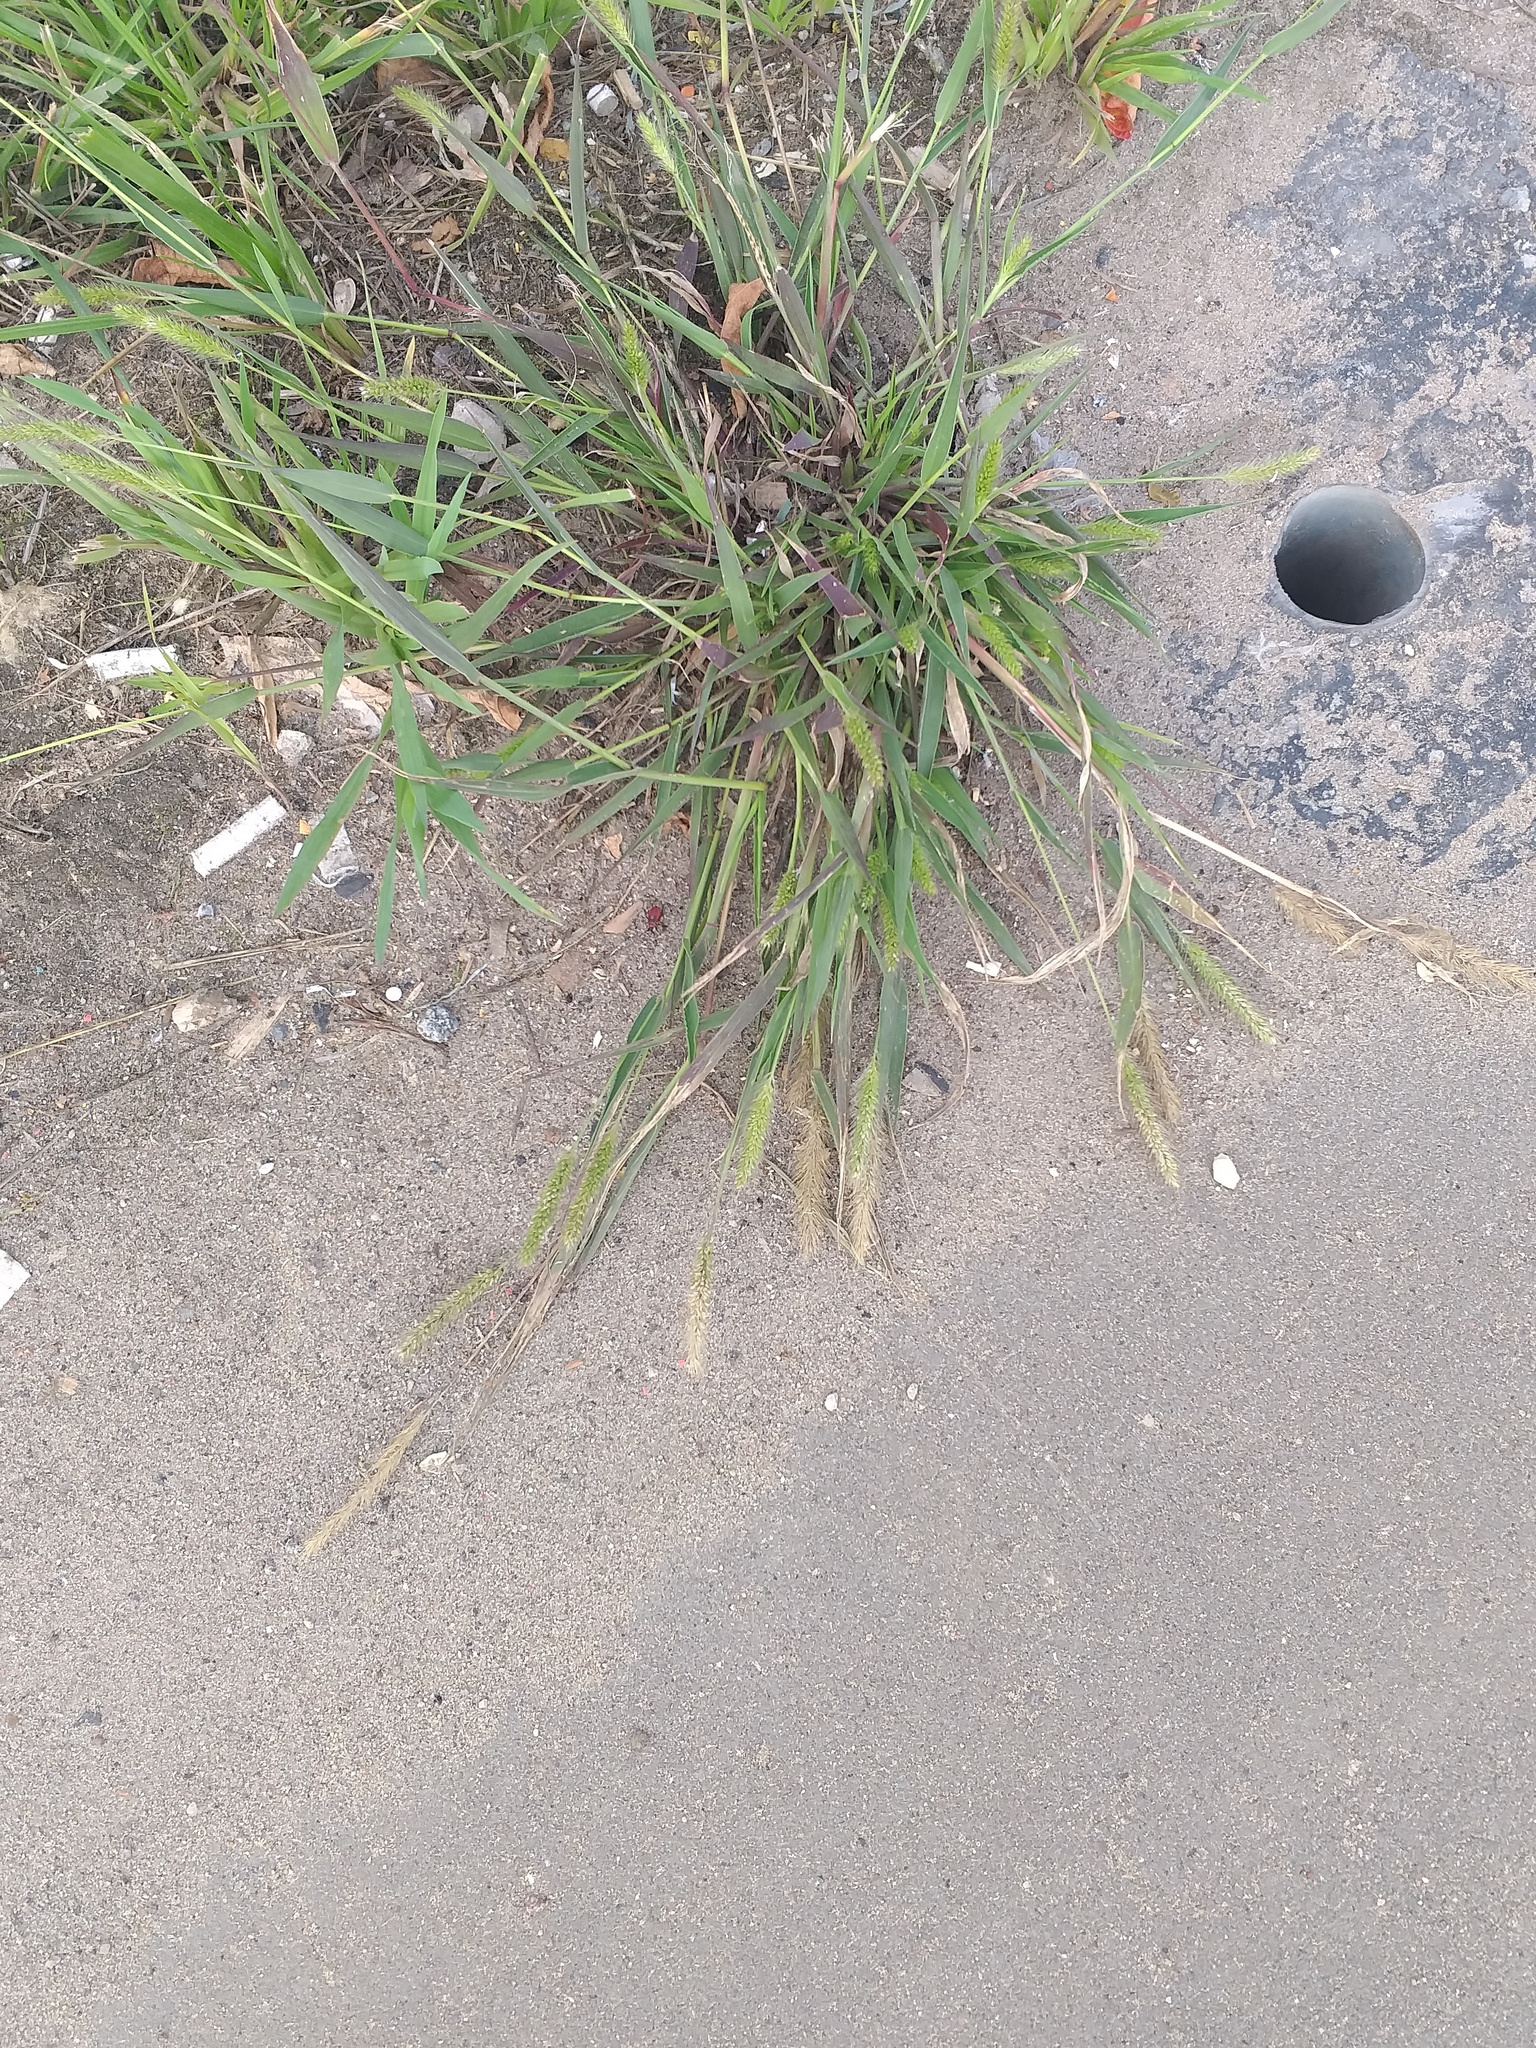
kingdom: Plantae
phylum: Tracheophyta
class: Liliopsida
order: Poales
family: Poaceae
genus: Setaria
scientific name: Setaria viridis
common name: Green bristlegrass
